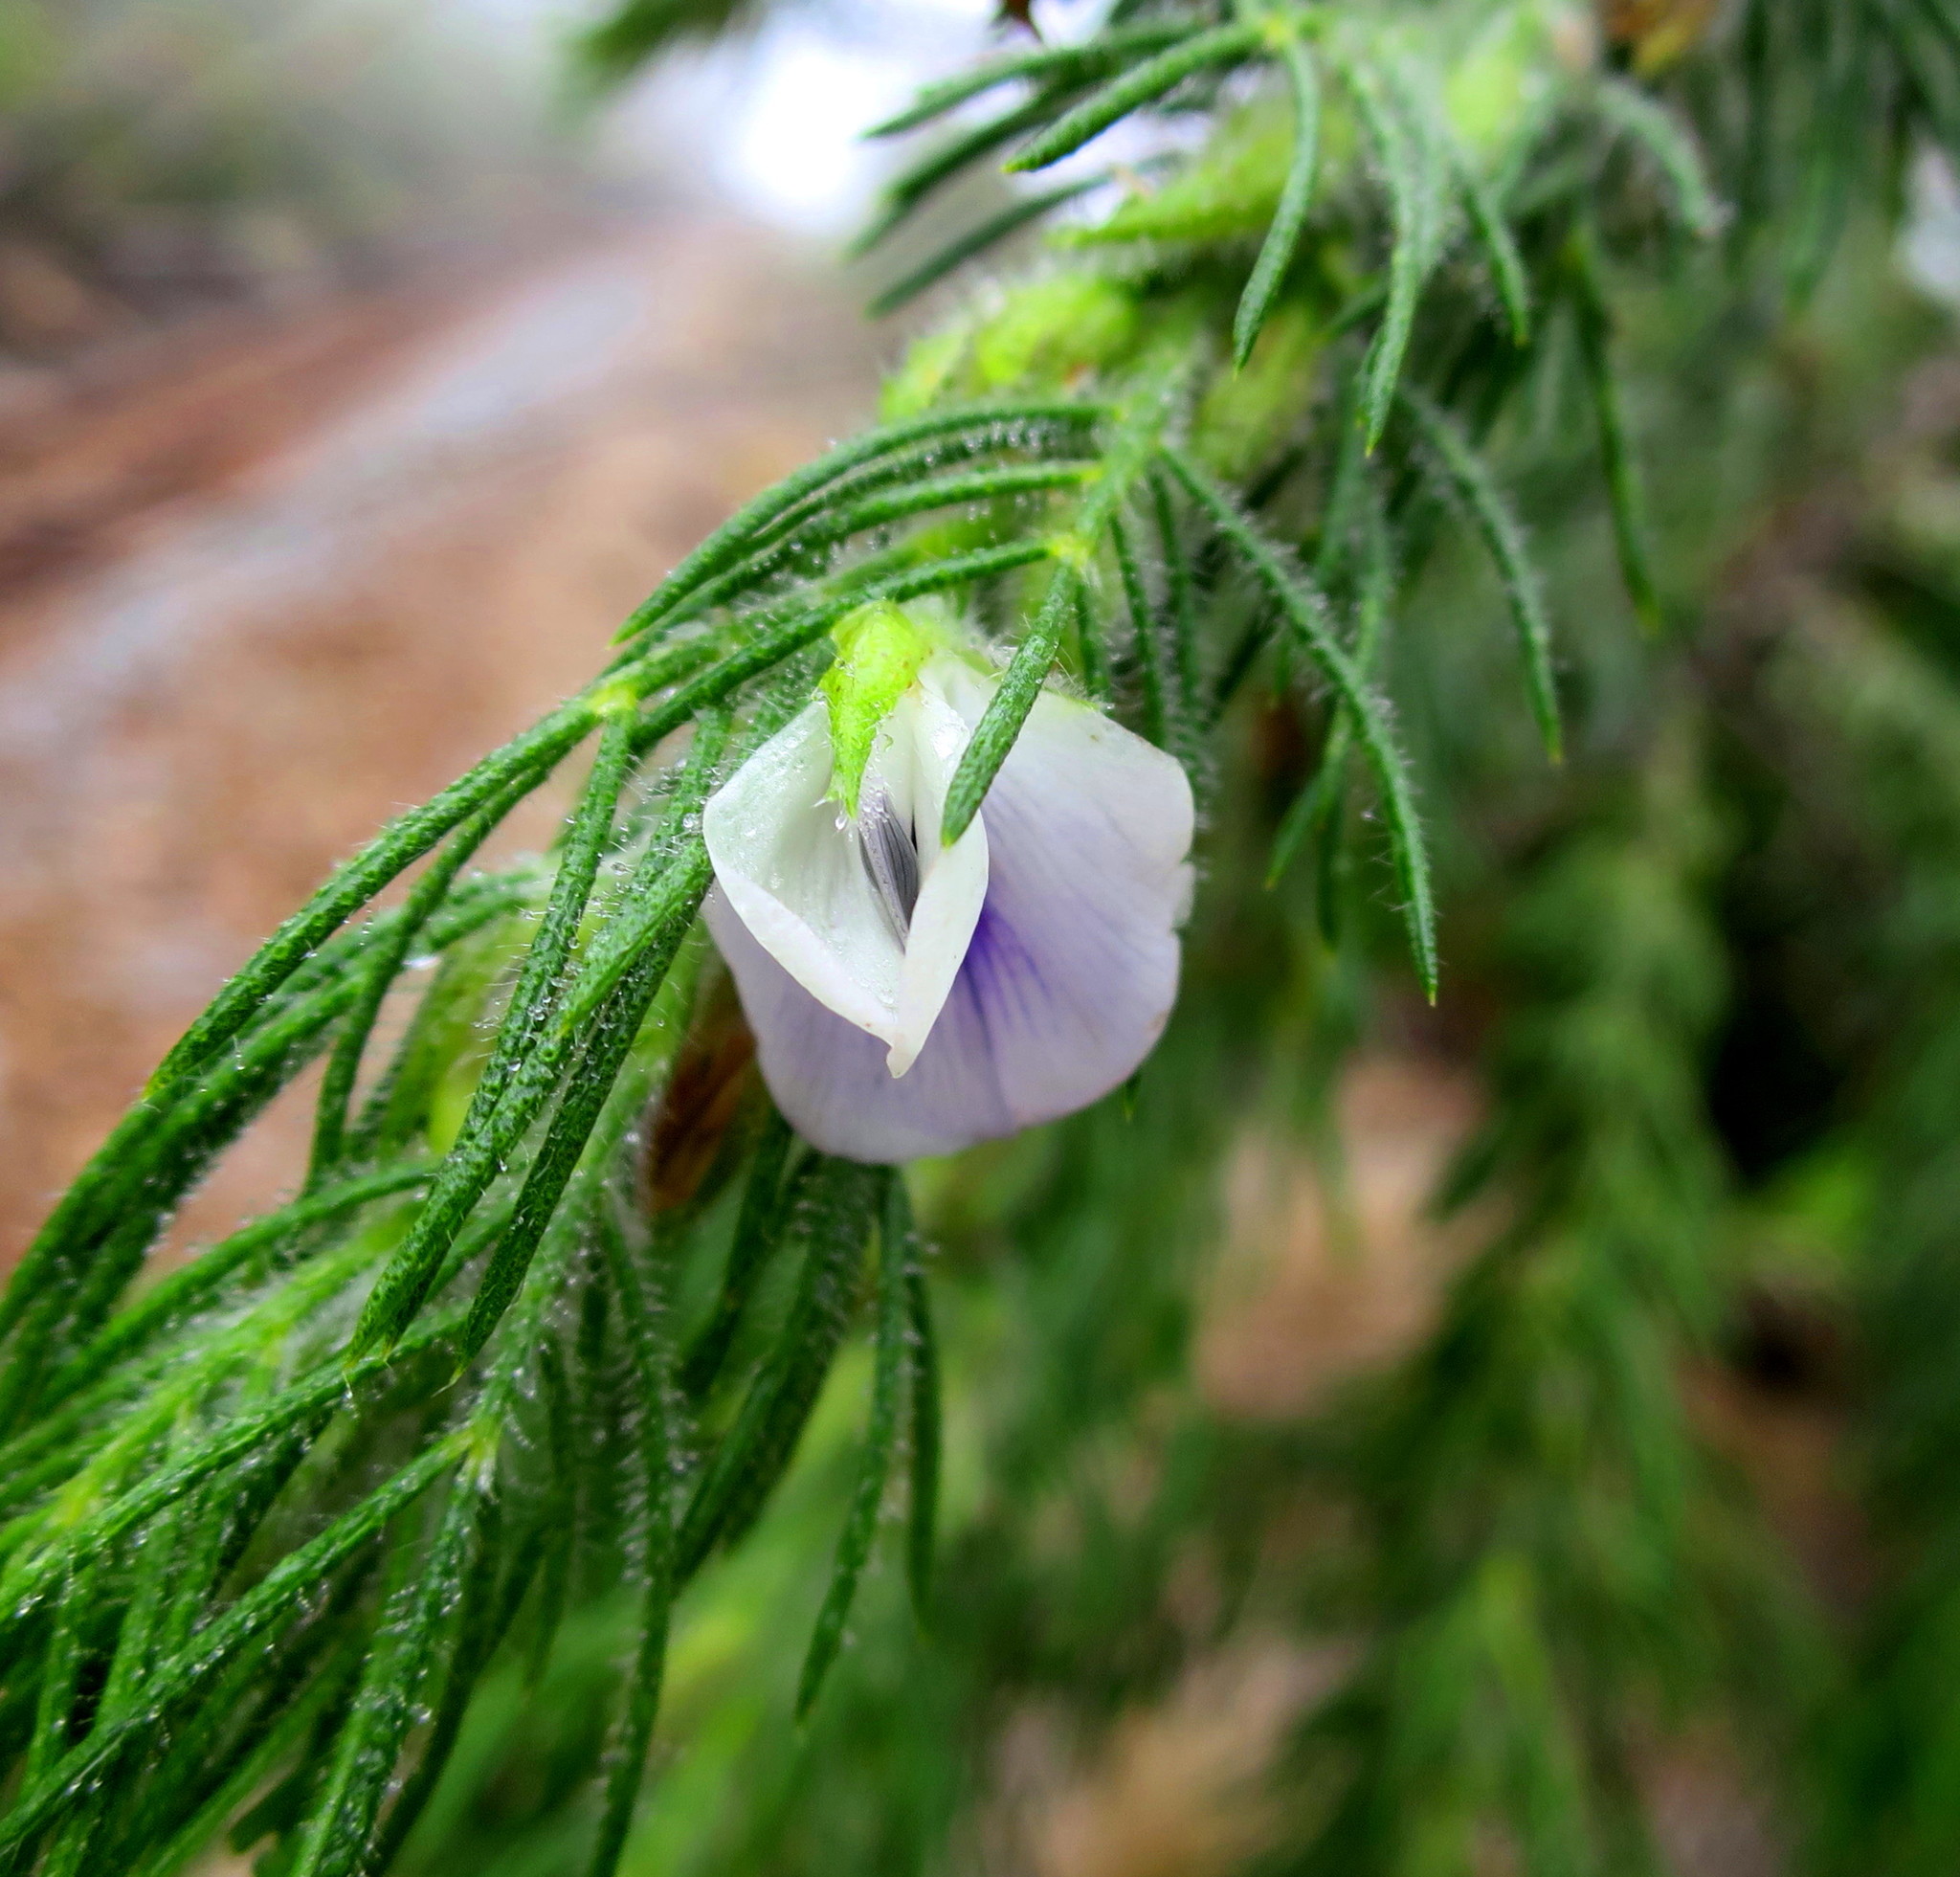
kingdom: Plantae
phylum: Tracheophyta
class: Magnoliopsida
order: Fabales
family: Fabaceae
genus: Psoralea
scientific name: Psoralea floccosa
